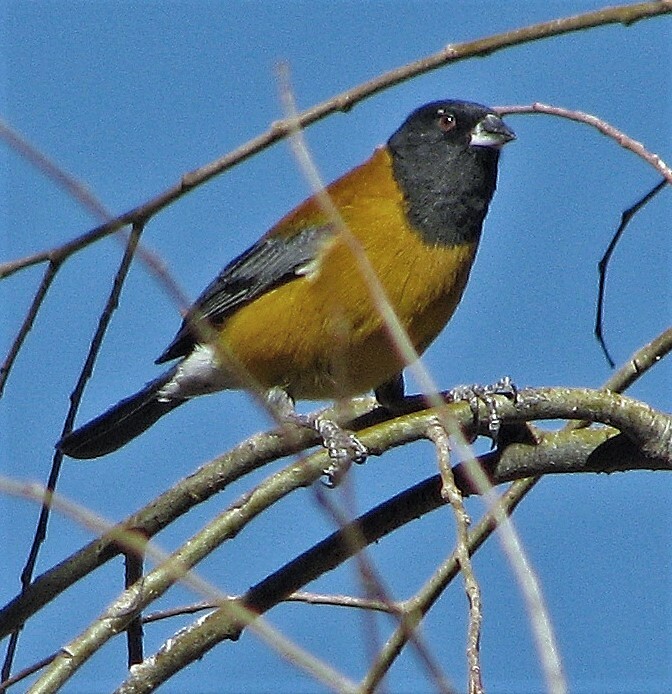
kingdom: Animalia
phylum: Chordata
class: Aves
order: Passeriformes
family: Thraupidae
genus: Phrygilus
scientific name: Phrygilus atriceps
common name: Black-hooded sierra finch
